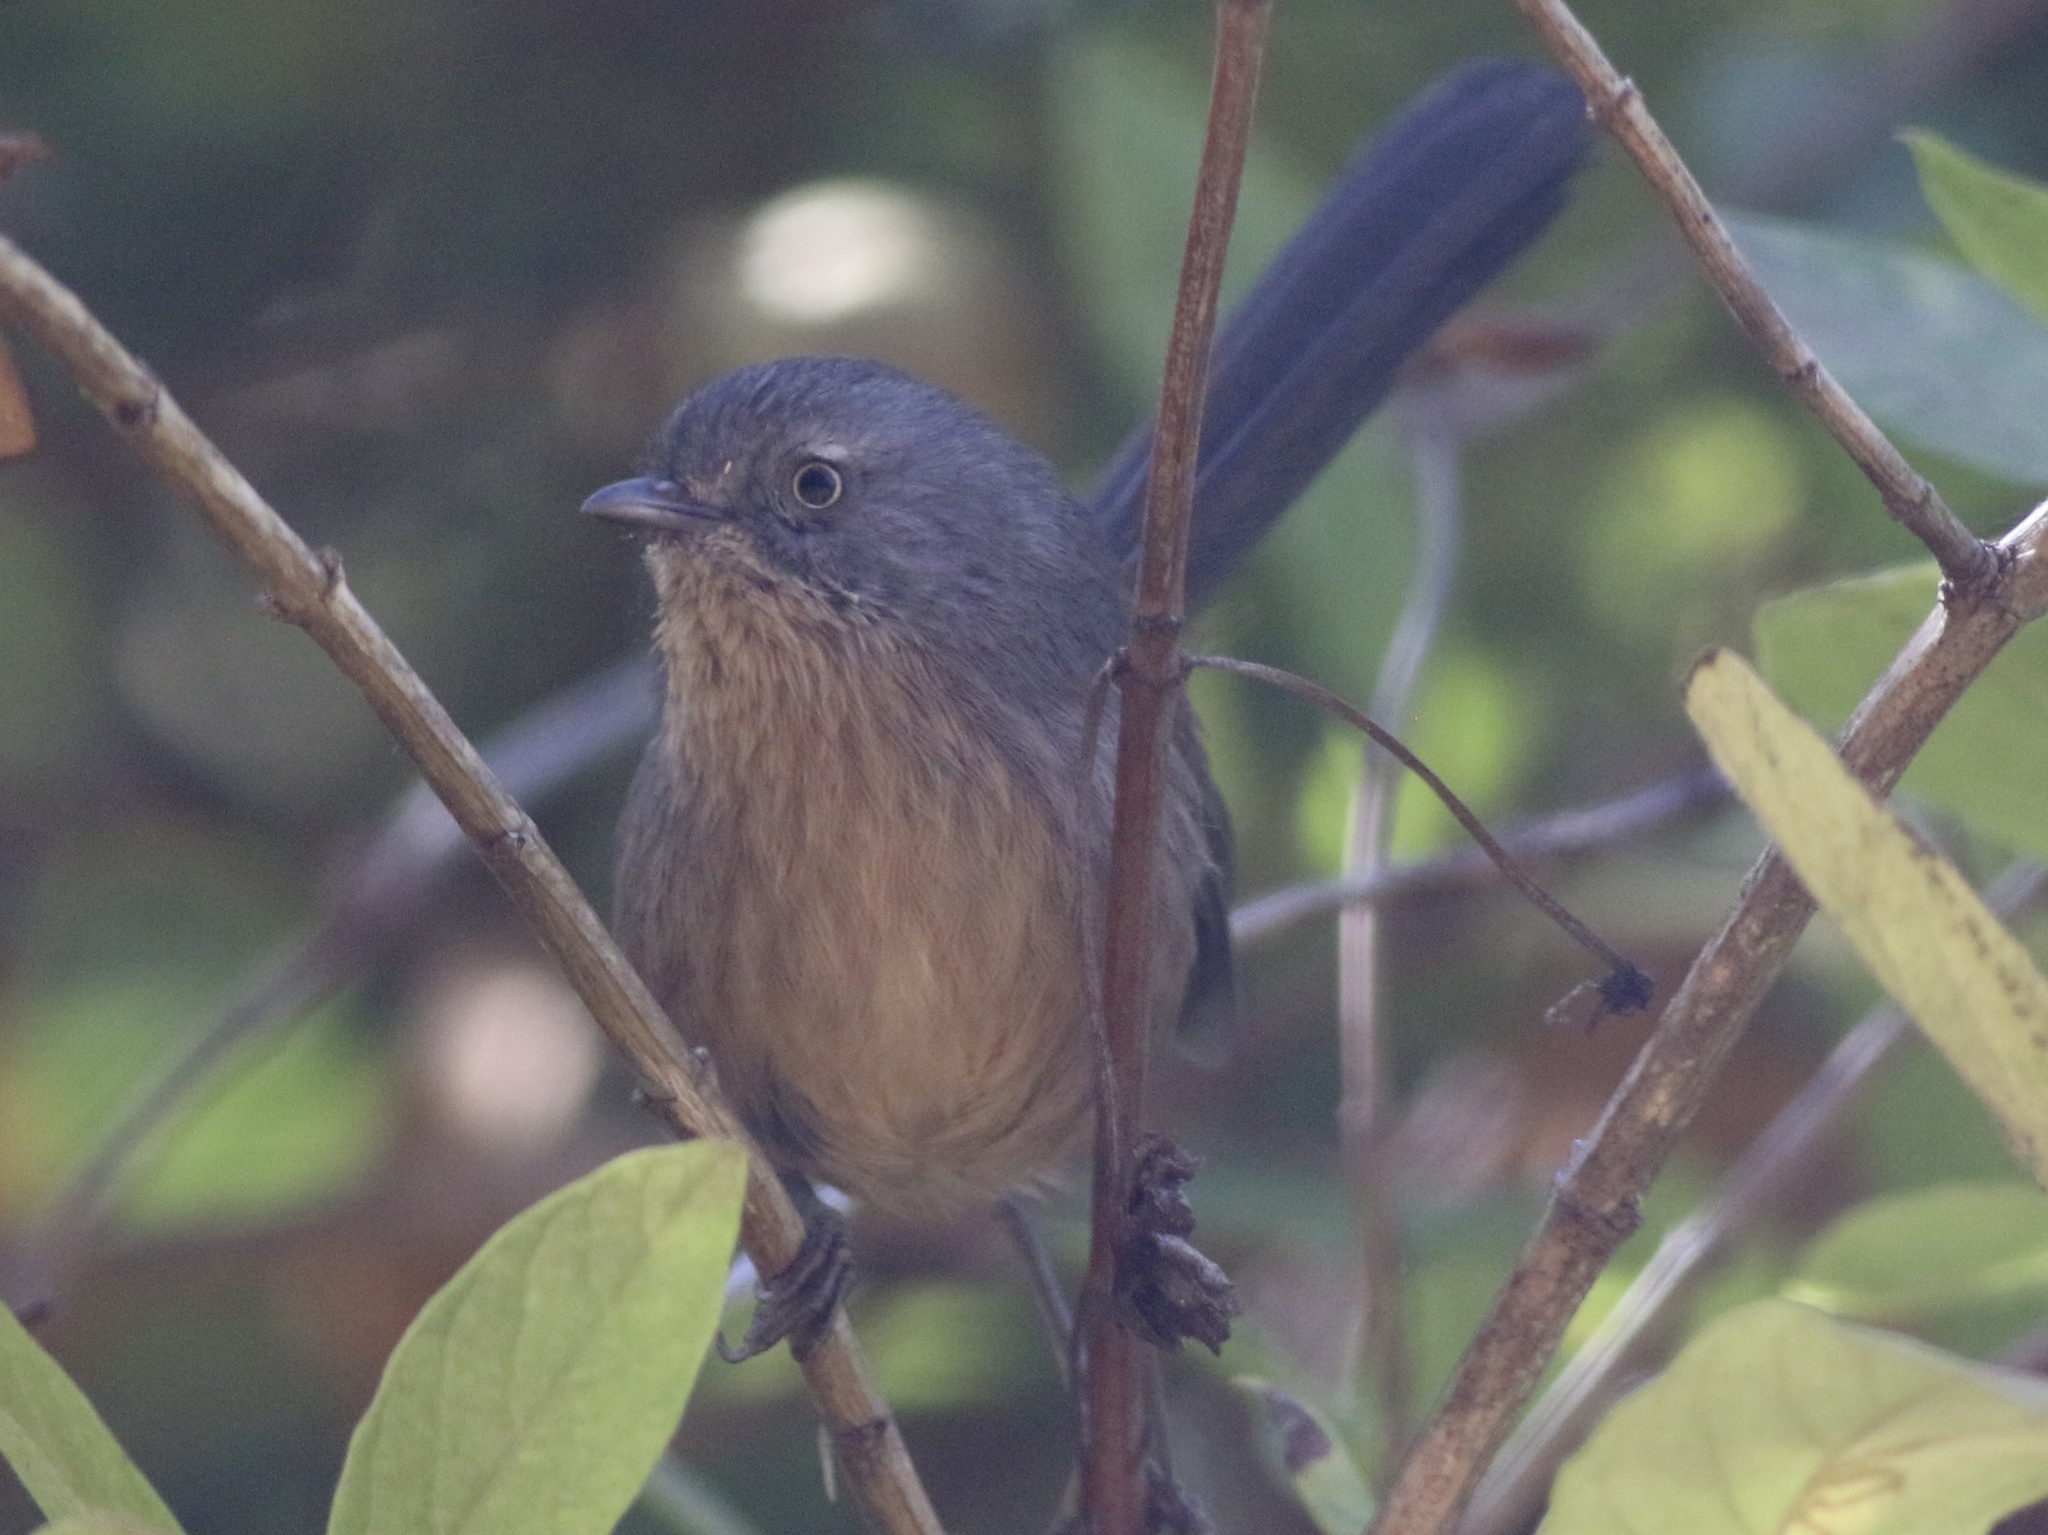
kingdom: Animalia
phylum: Chordata
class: Aves
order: Passeriformes
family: Sylviidae
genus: Chamaea
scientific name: Chamaea fasciata
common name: Wrentit
